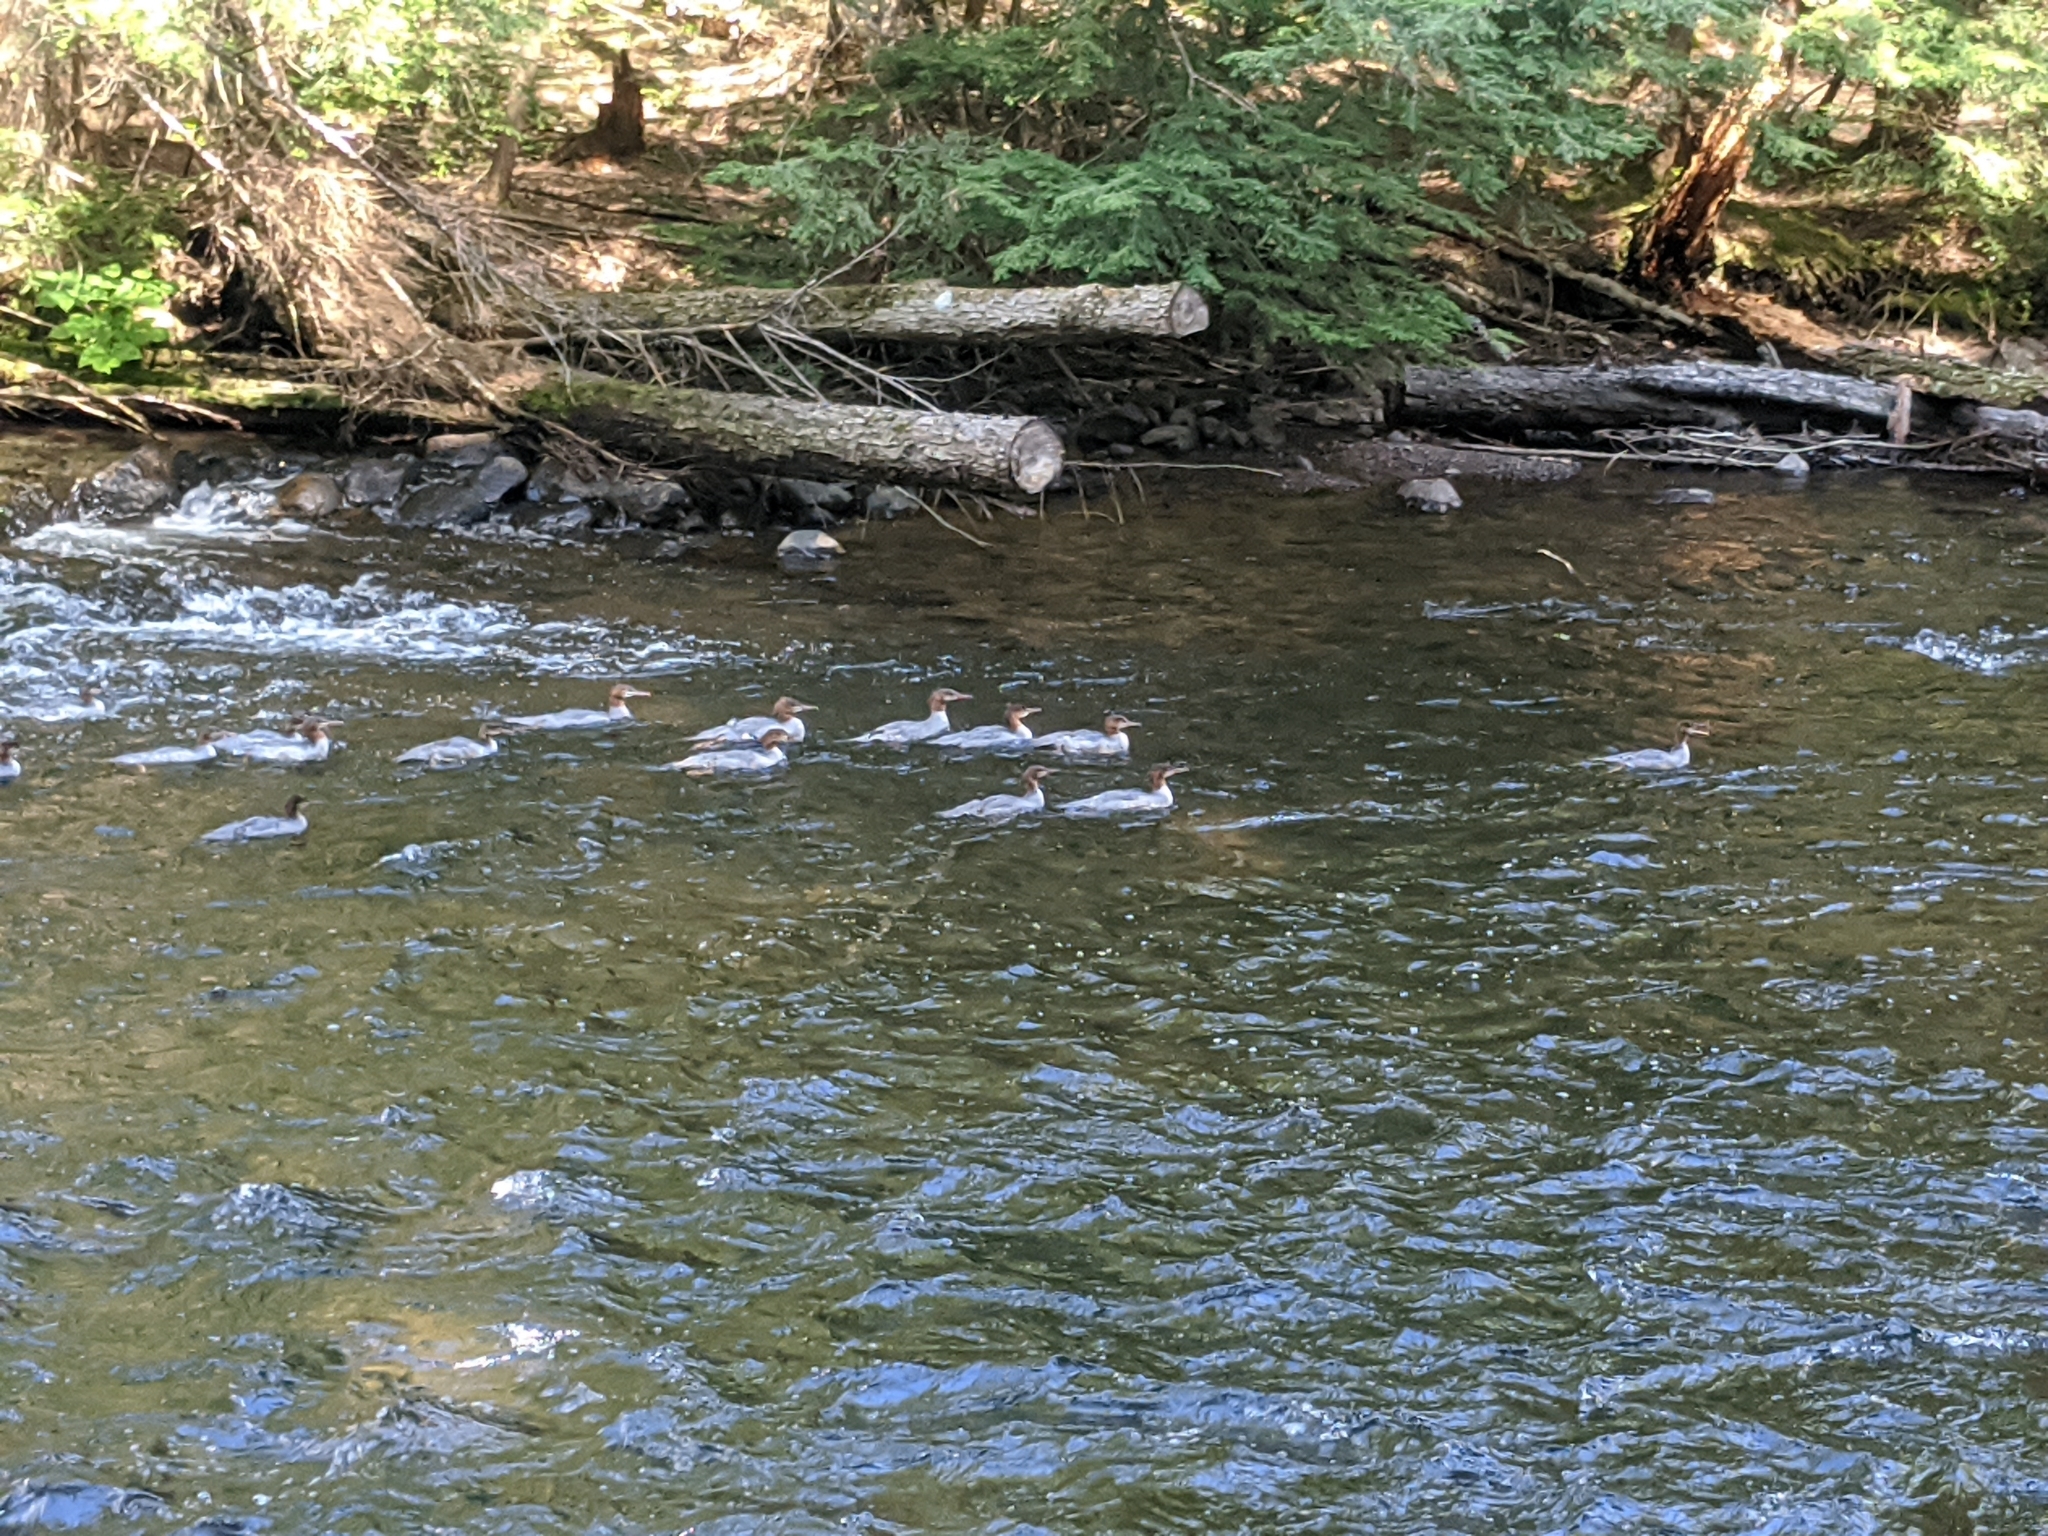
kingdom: Animalia
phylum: Chordata
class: Aves
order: Anseriformes
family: Anatidae
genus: Mergus
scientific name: Mergus merganser
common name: Common merganser
